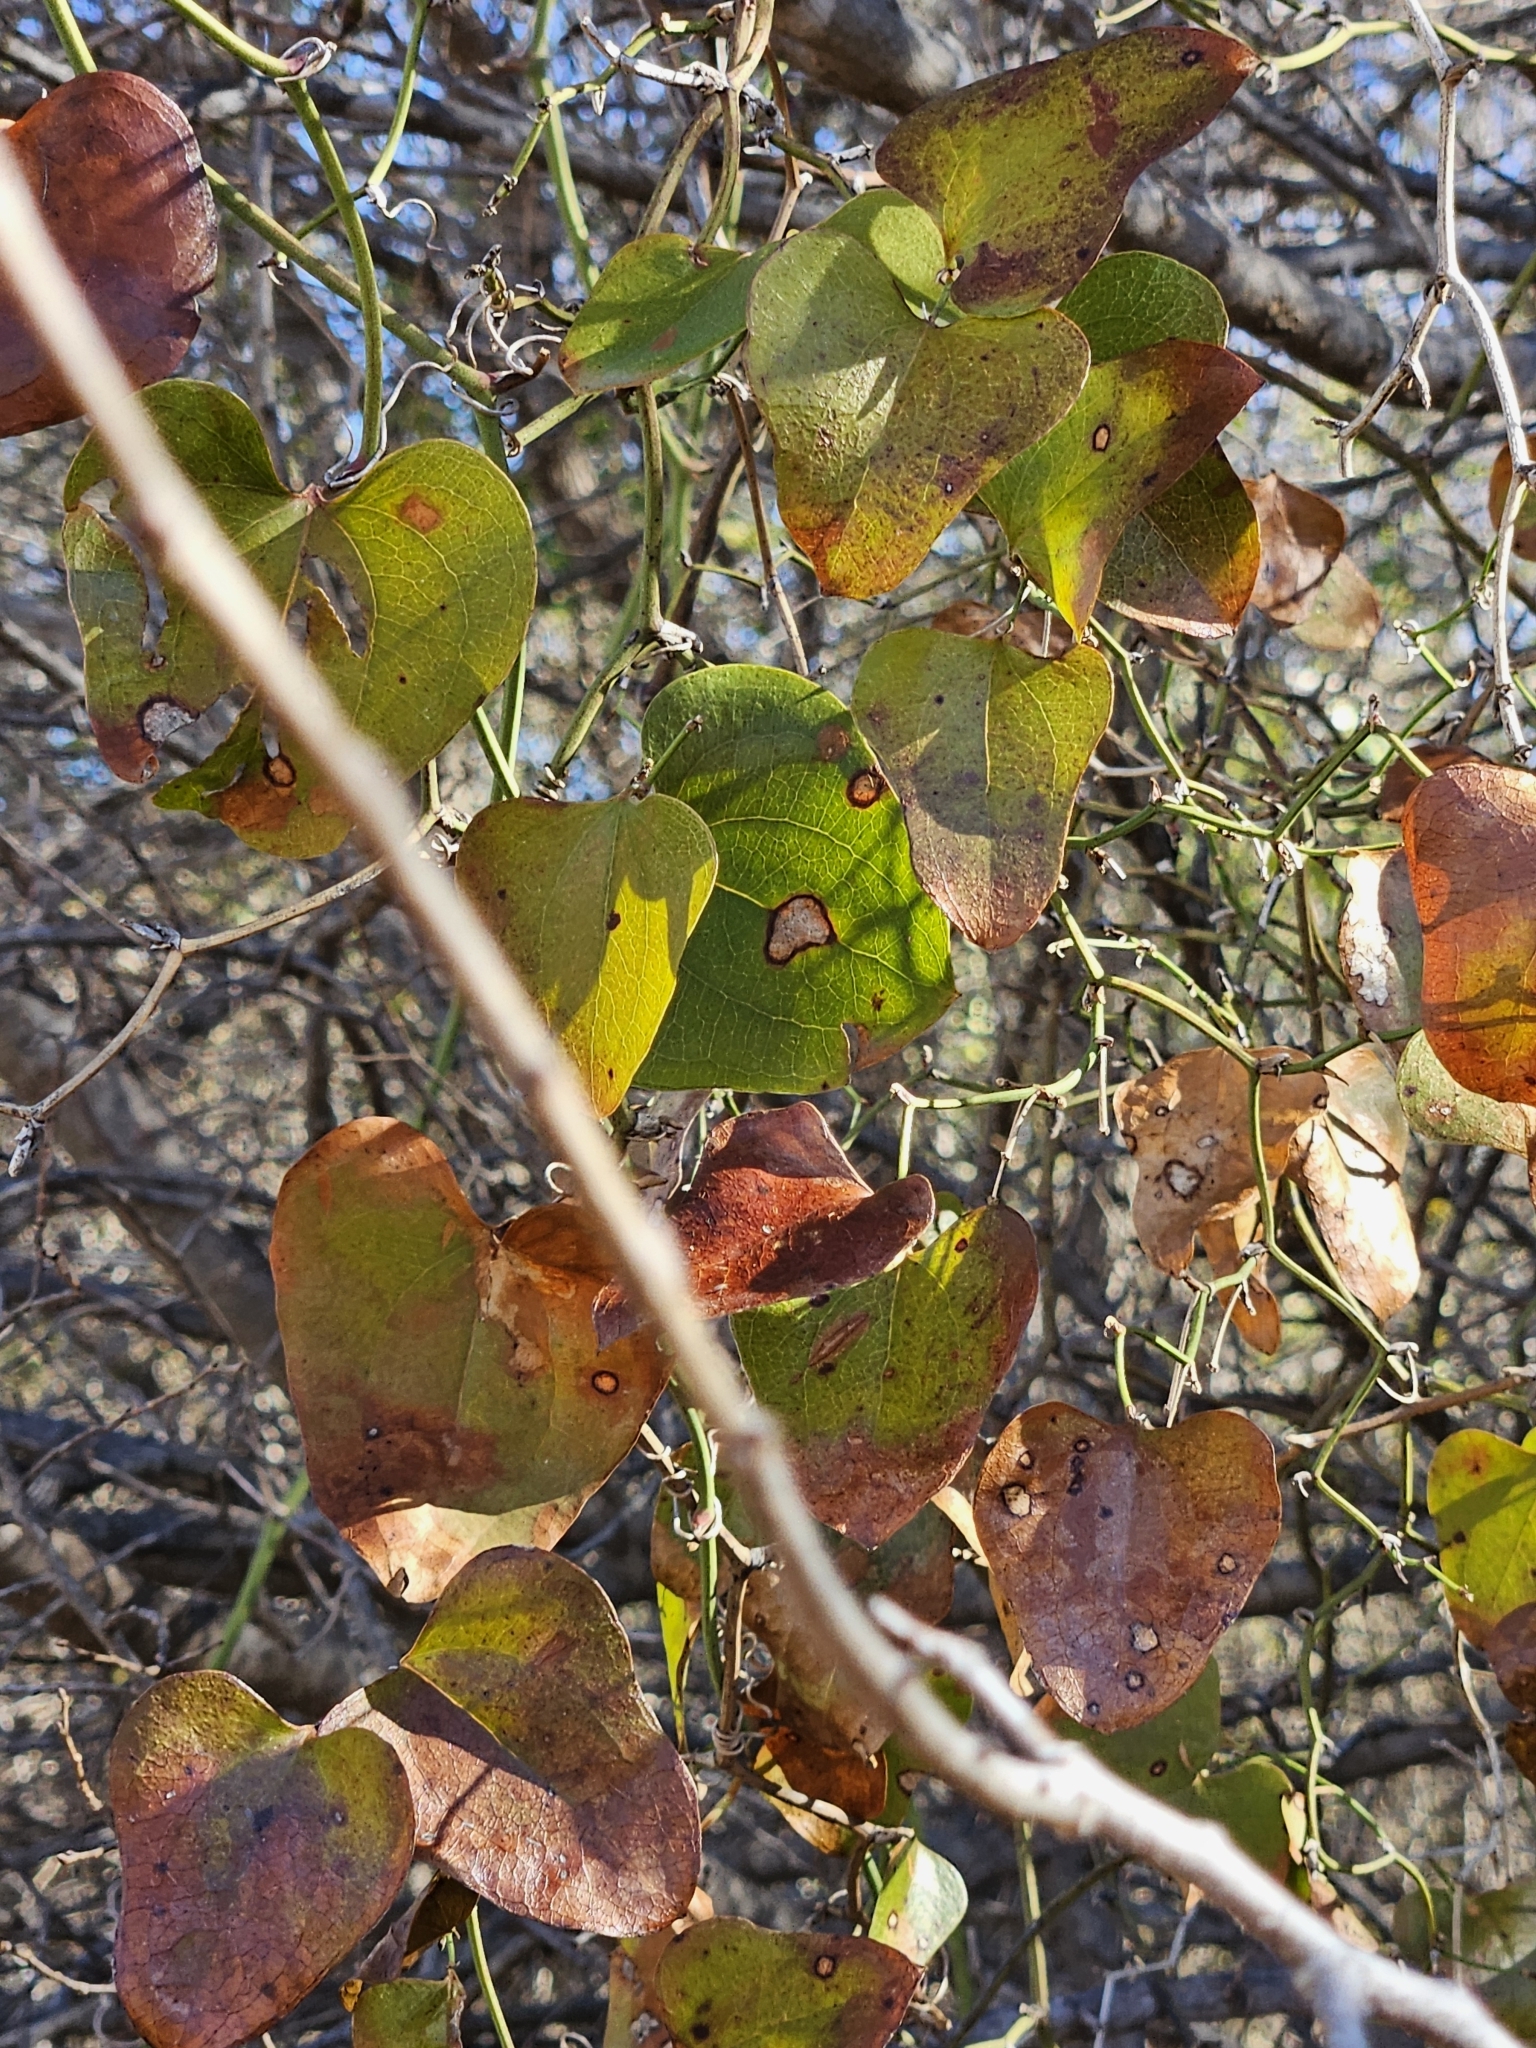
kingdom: Plantae
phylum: Tracheophyta
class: Liliopsida
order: Liliales
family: Smilacaceae
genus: Smilax
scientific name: Smilax bona-nox
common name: Catbrier
